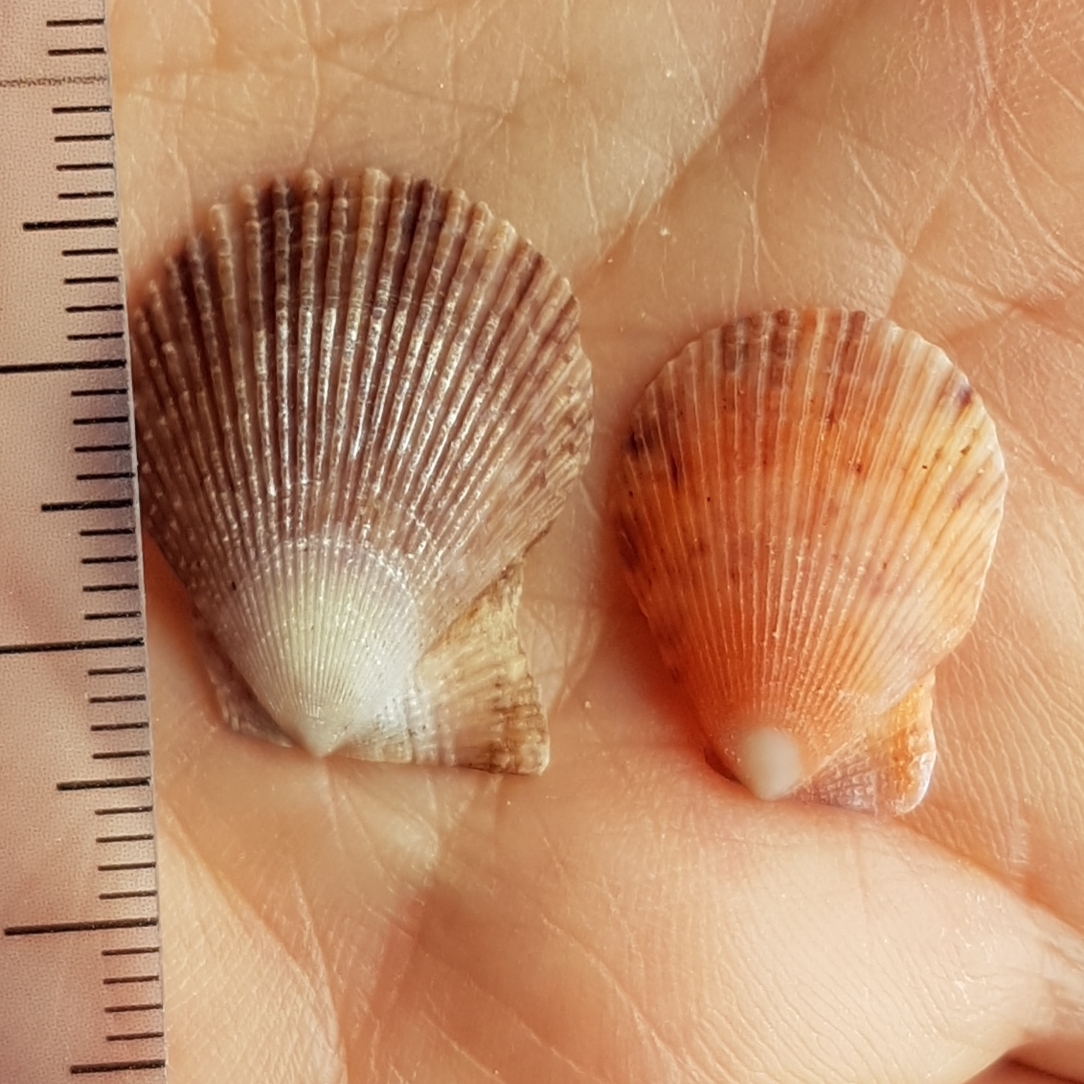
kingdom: Animalia
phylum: Mollusca
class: Bivalvia
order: Pectinida
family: Pectinidae
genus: Mimachlamys
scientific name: Mimachlamys varia
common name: Variegated scallop
